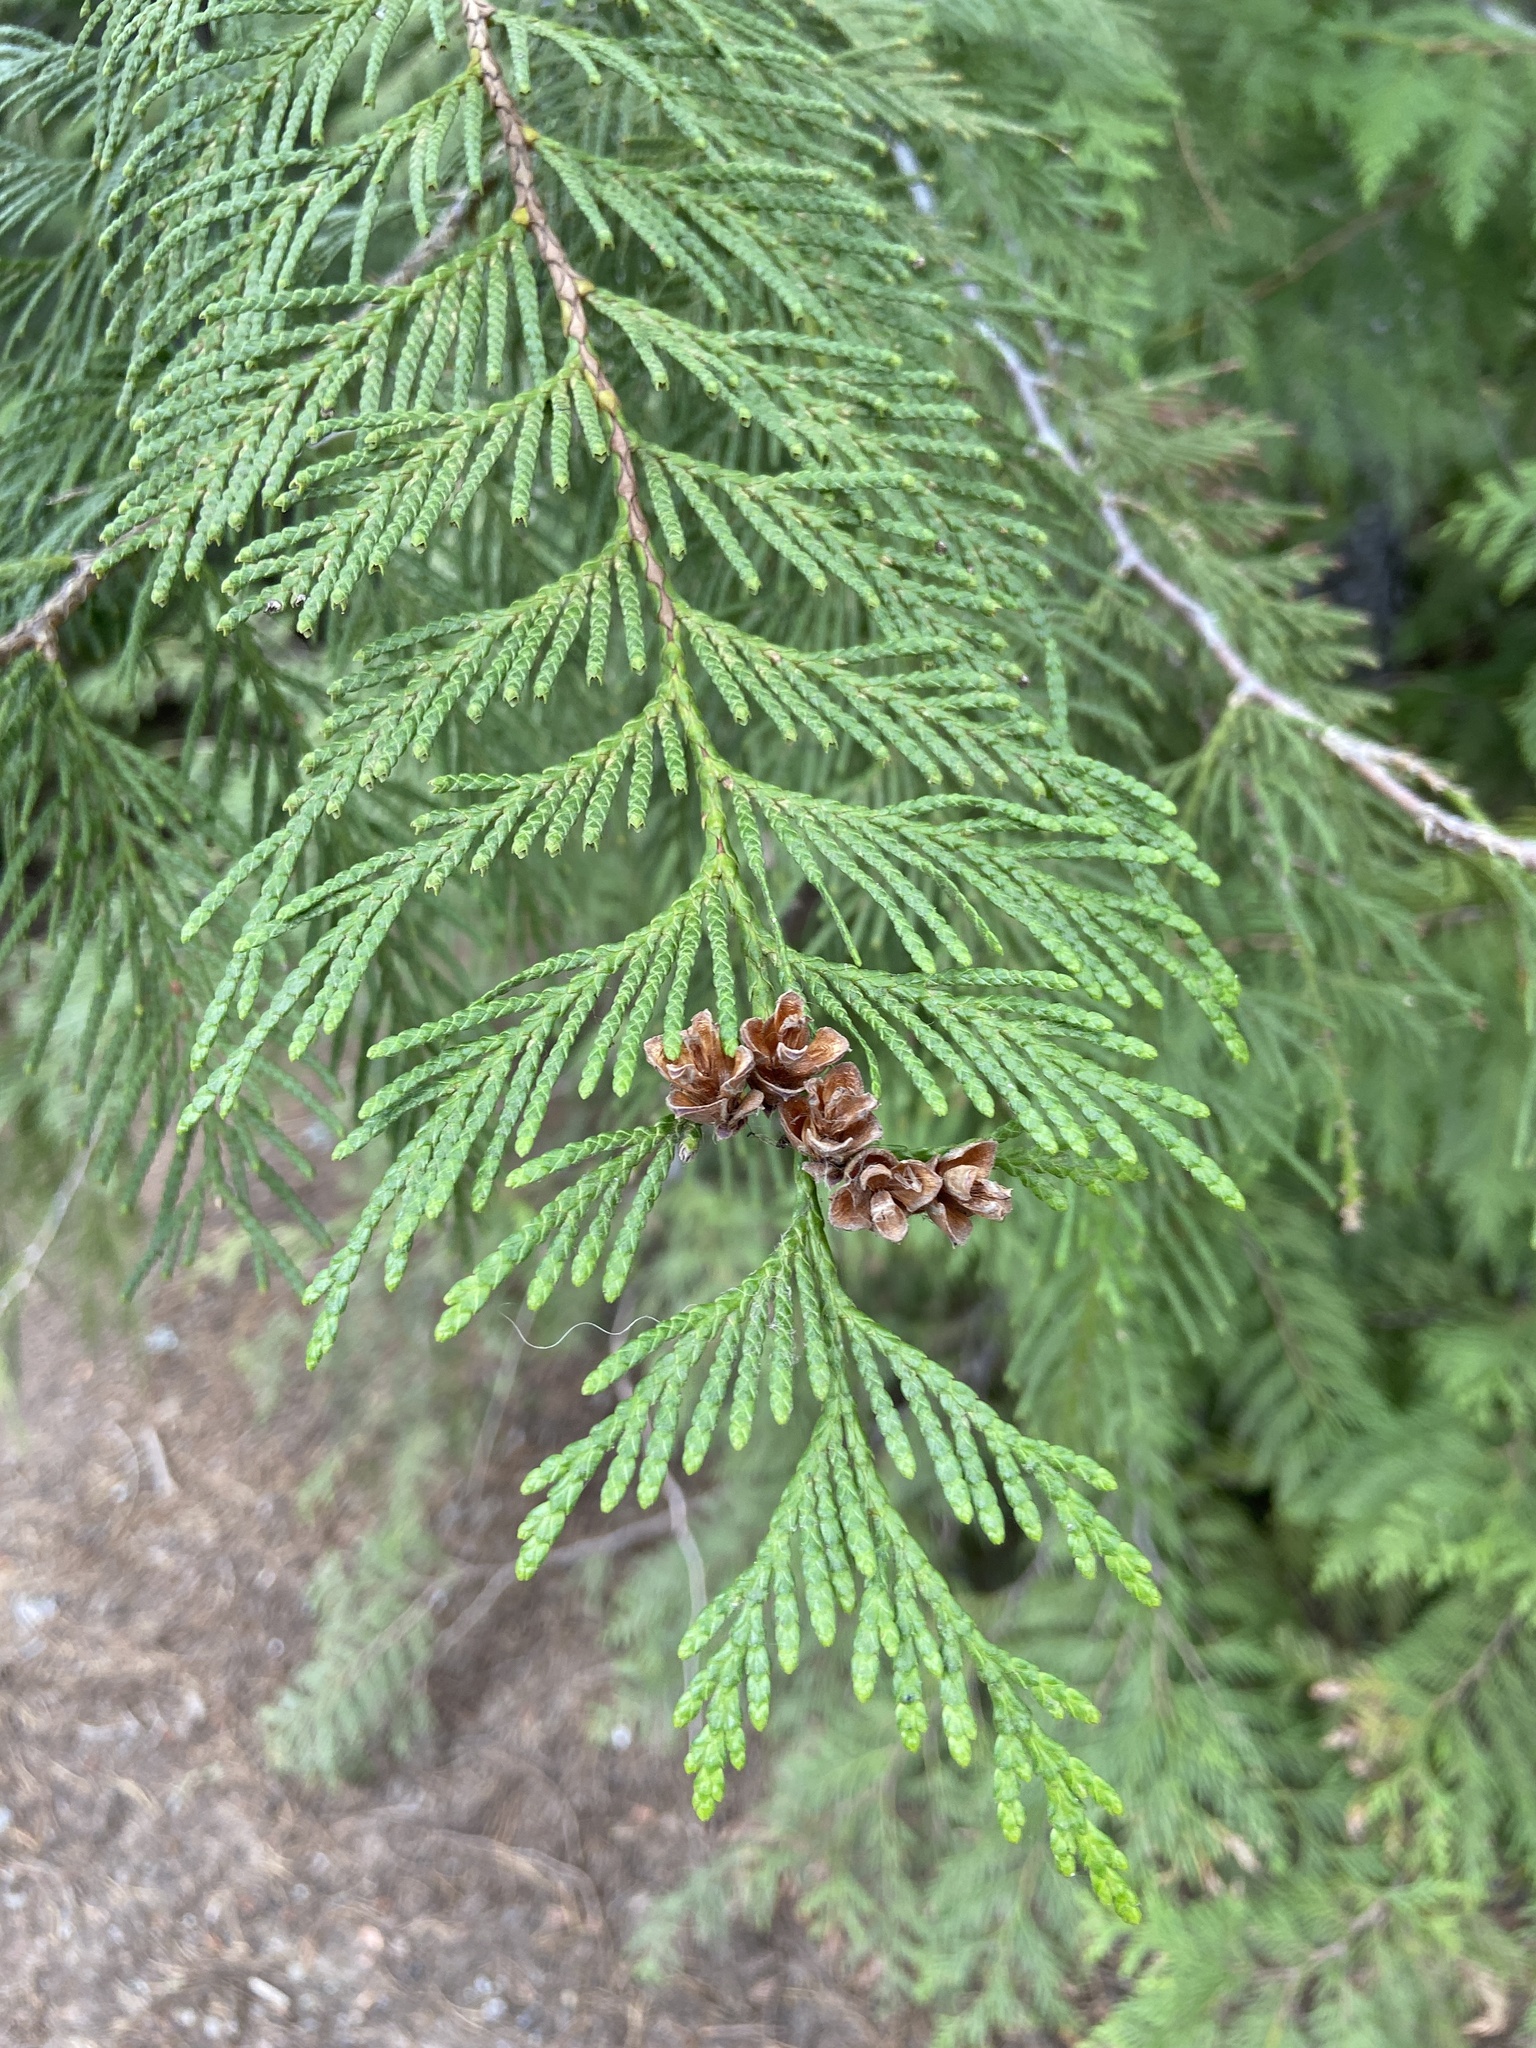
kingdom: Plantae
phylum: Tracheophyta
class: Pinopsida
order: Pinales
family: Cupressaceae
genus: Thuja
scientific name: Thuja plicata
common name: Western red-cedar
